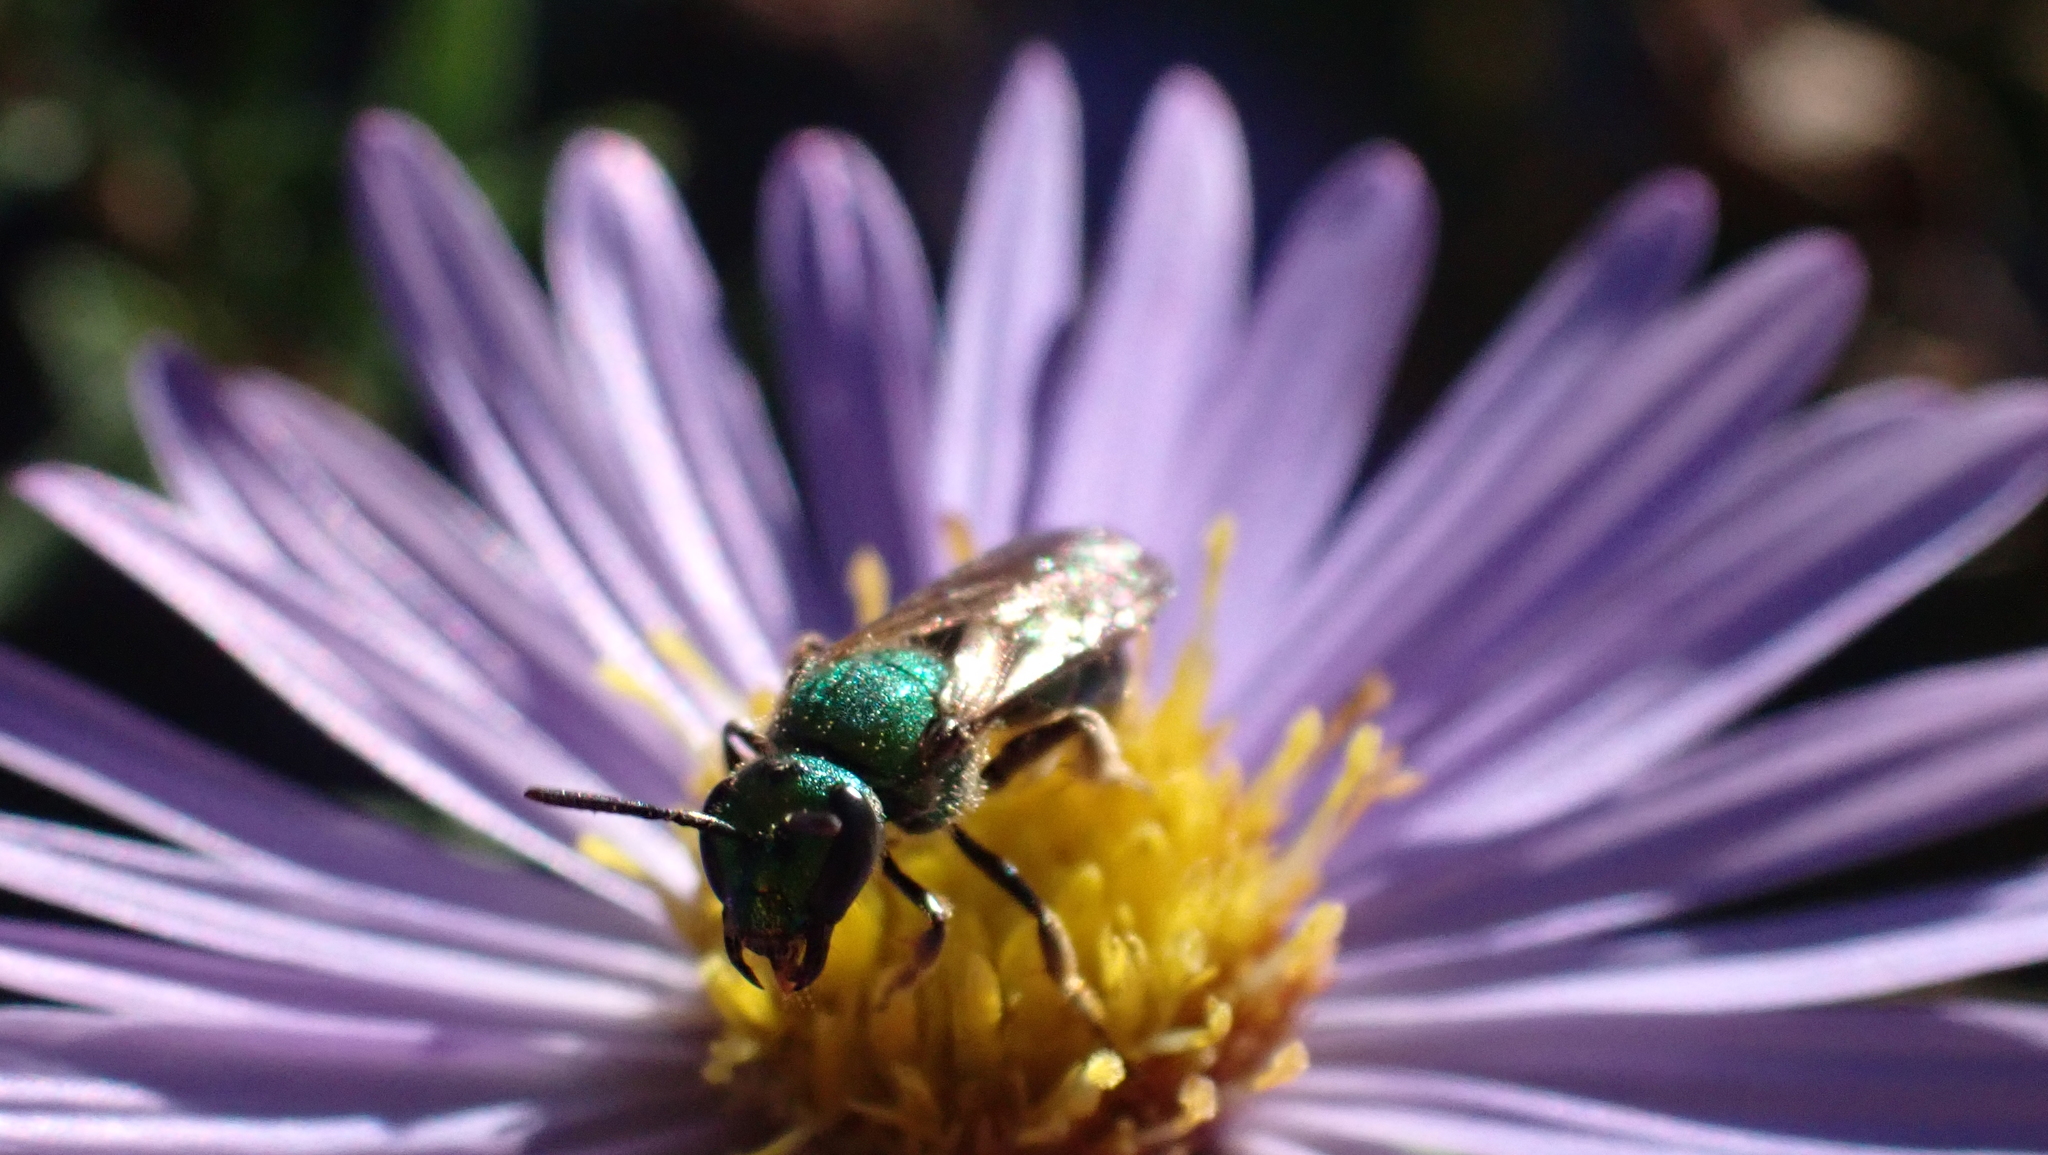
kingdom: Animalia
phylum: Arthropoda
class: Insecta
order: Hymenoptera
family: Halictidae
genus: Augochlora
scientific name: Augochlora pura
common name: Pure green sweat bee
